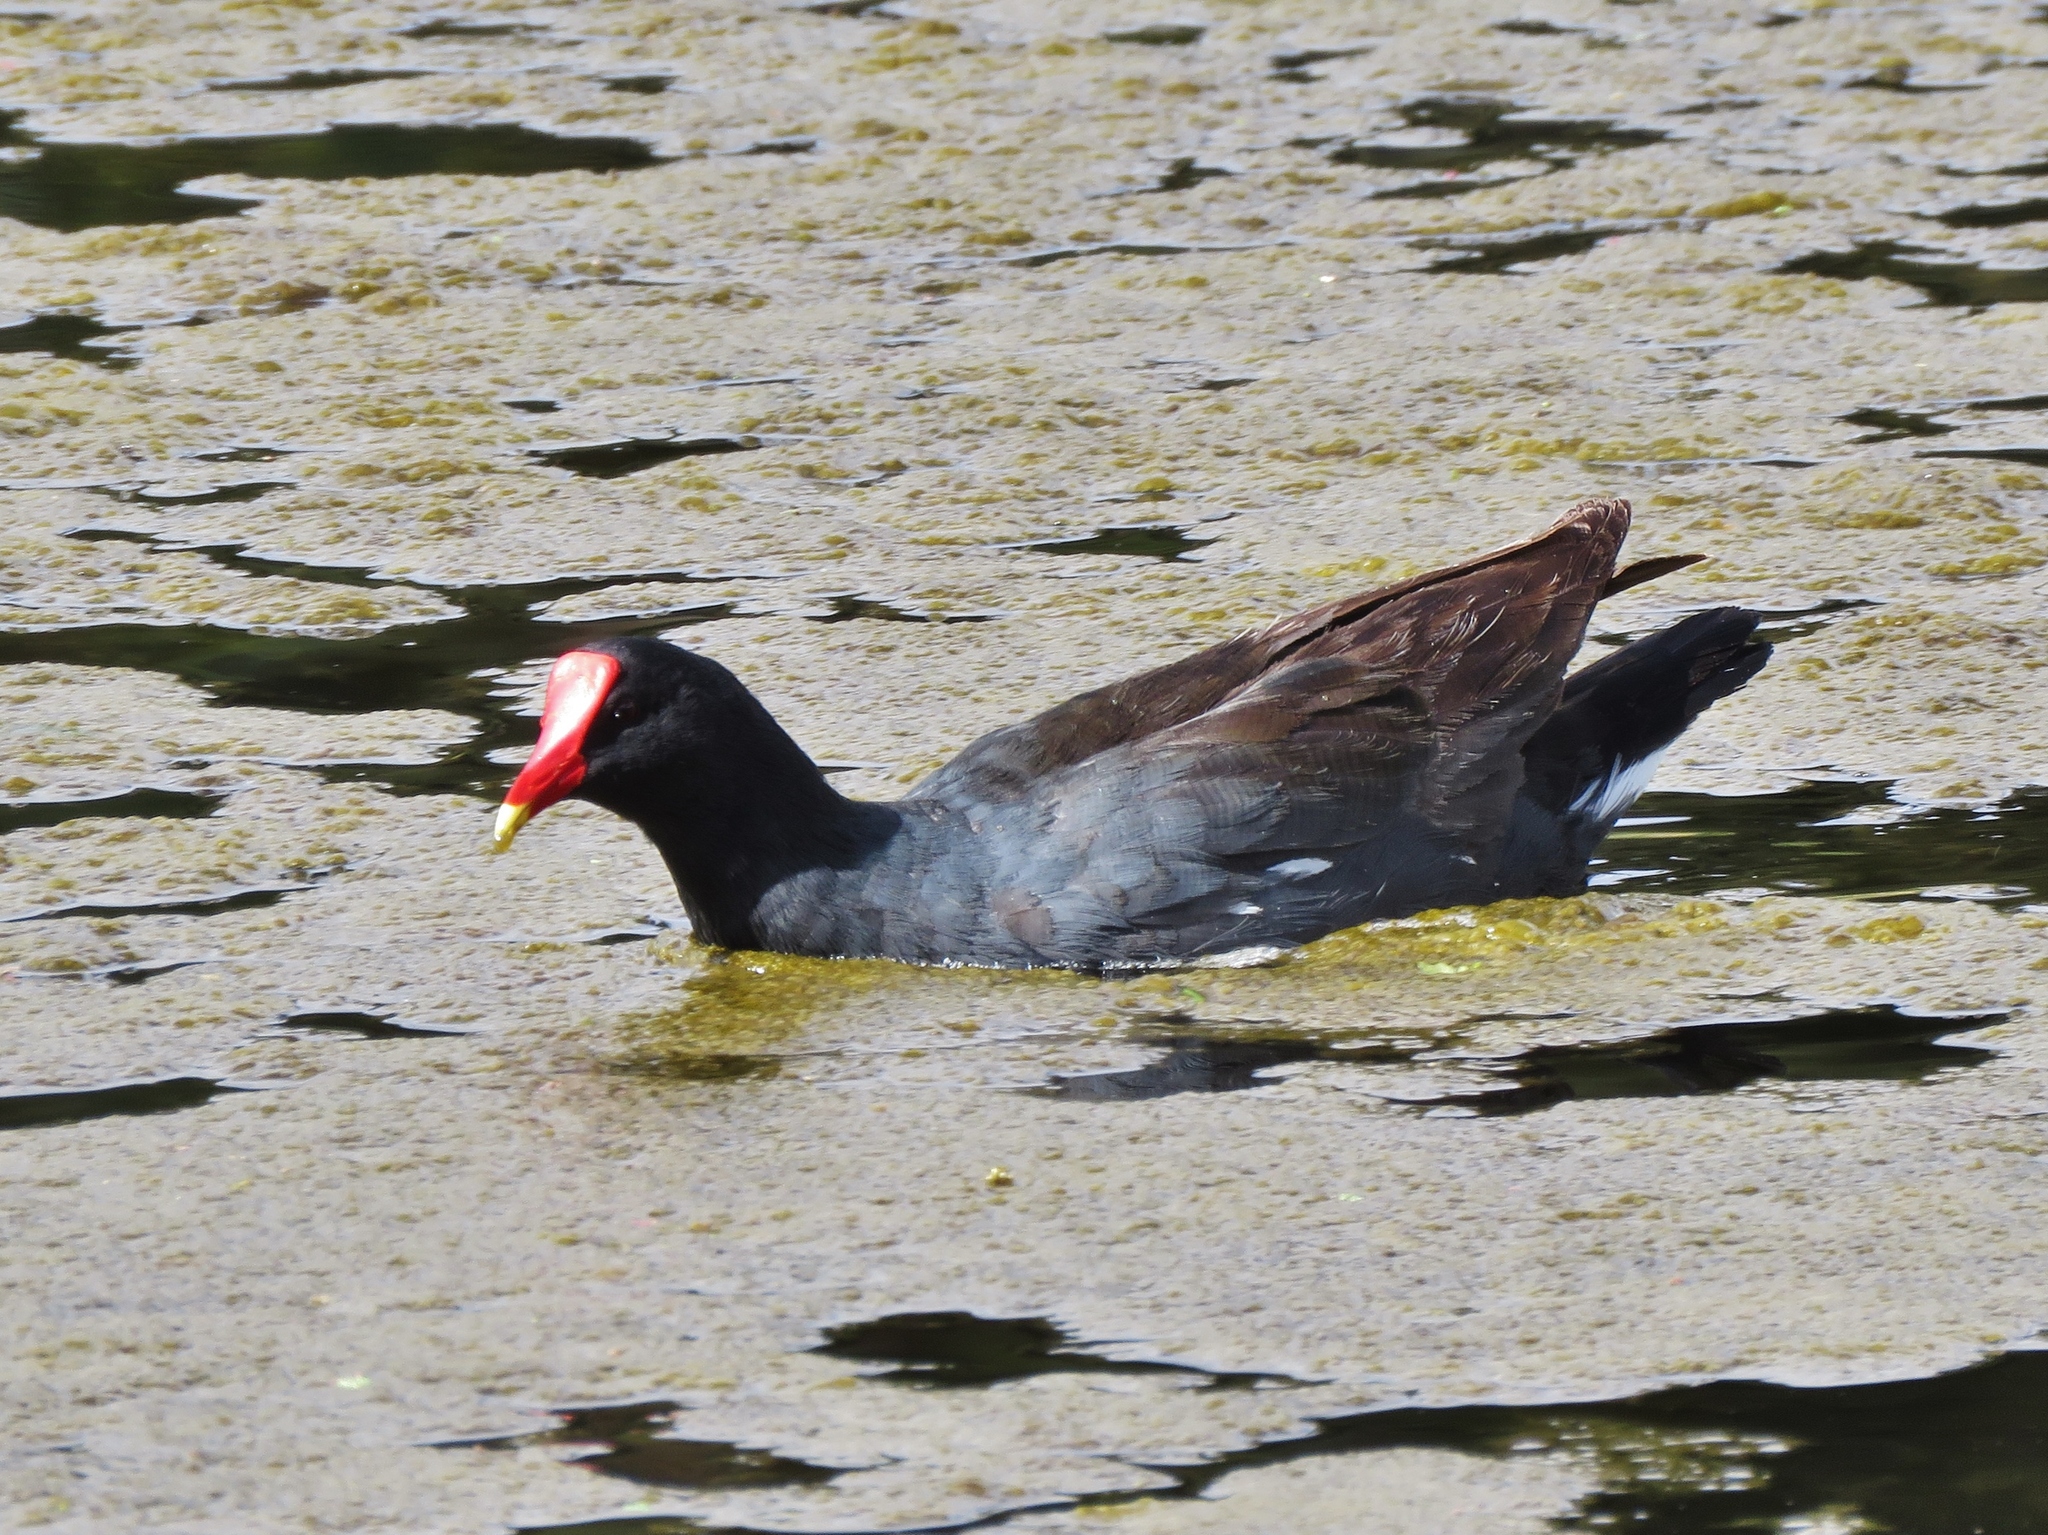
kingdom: Animalia
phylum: Chordata
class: Aves
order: Gruiformes
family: Rallidae
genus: Gallinula
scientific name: Gallinula chloropus
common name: Common moorhen
